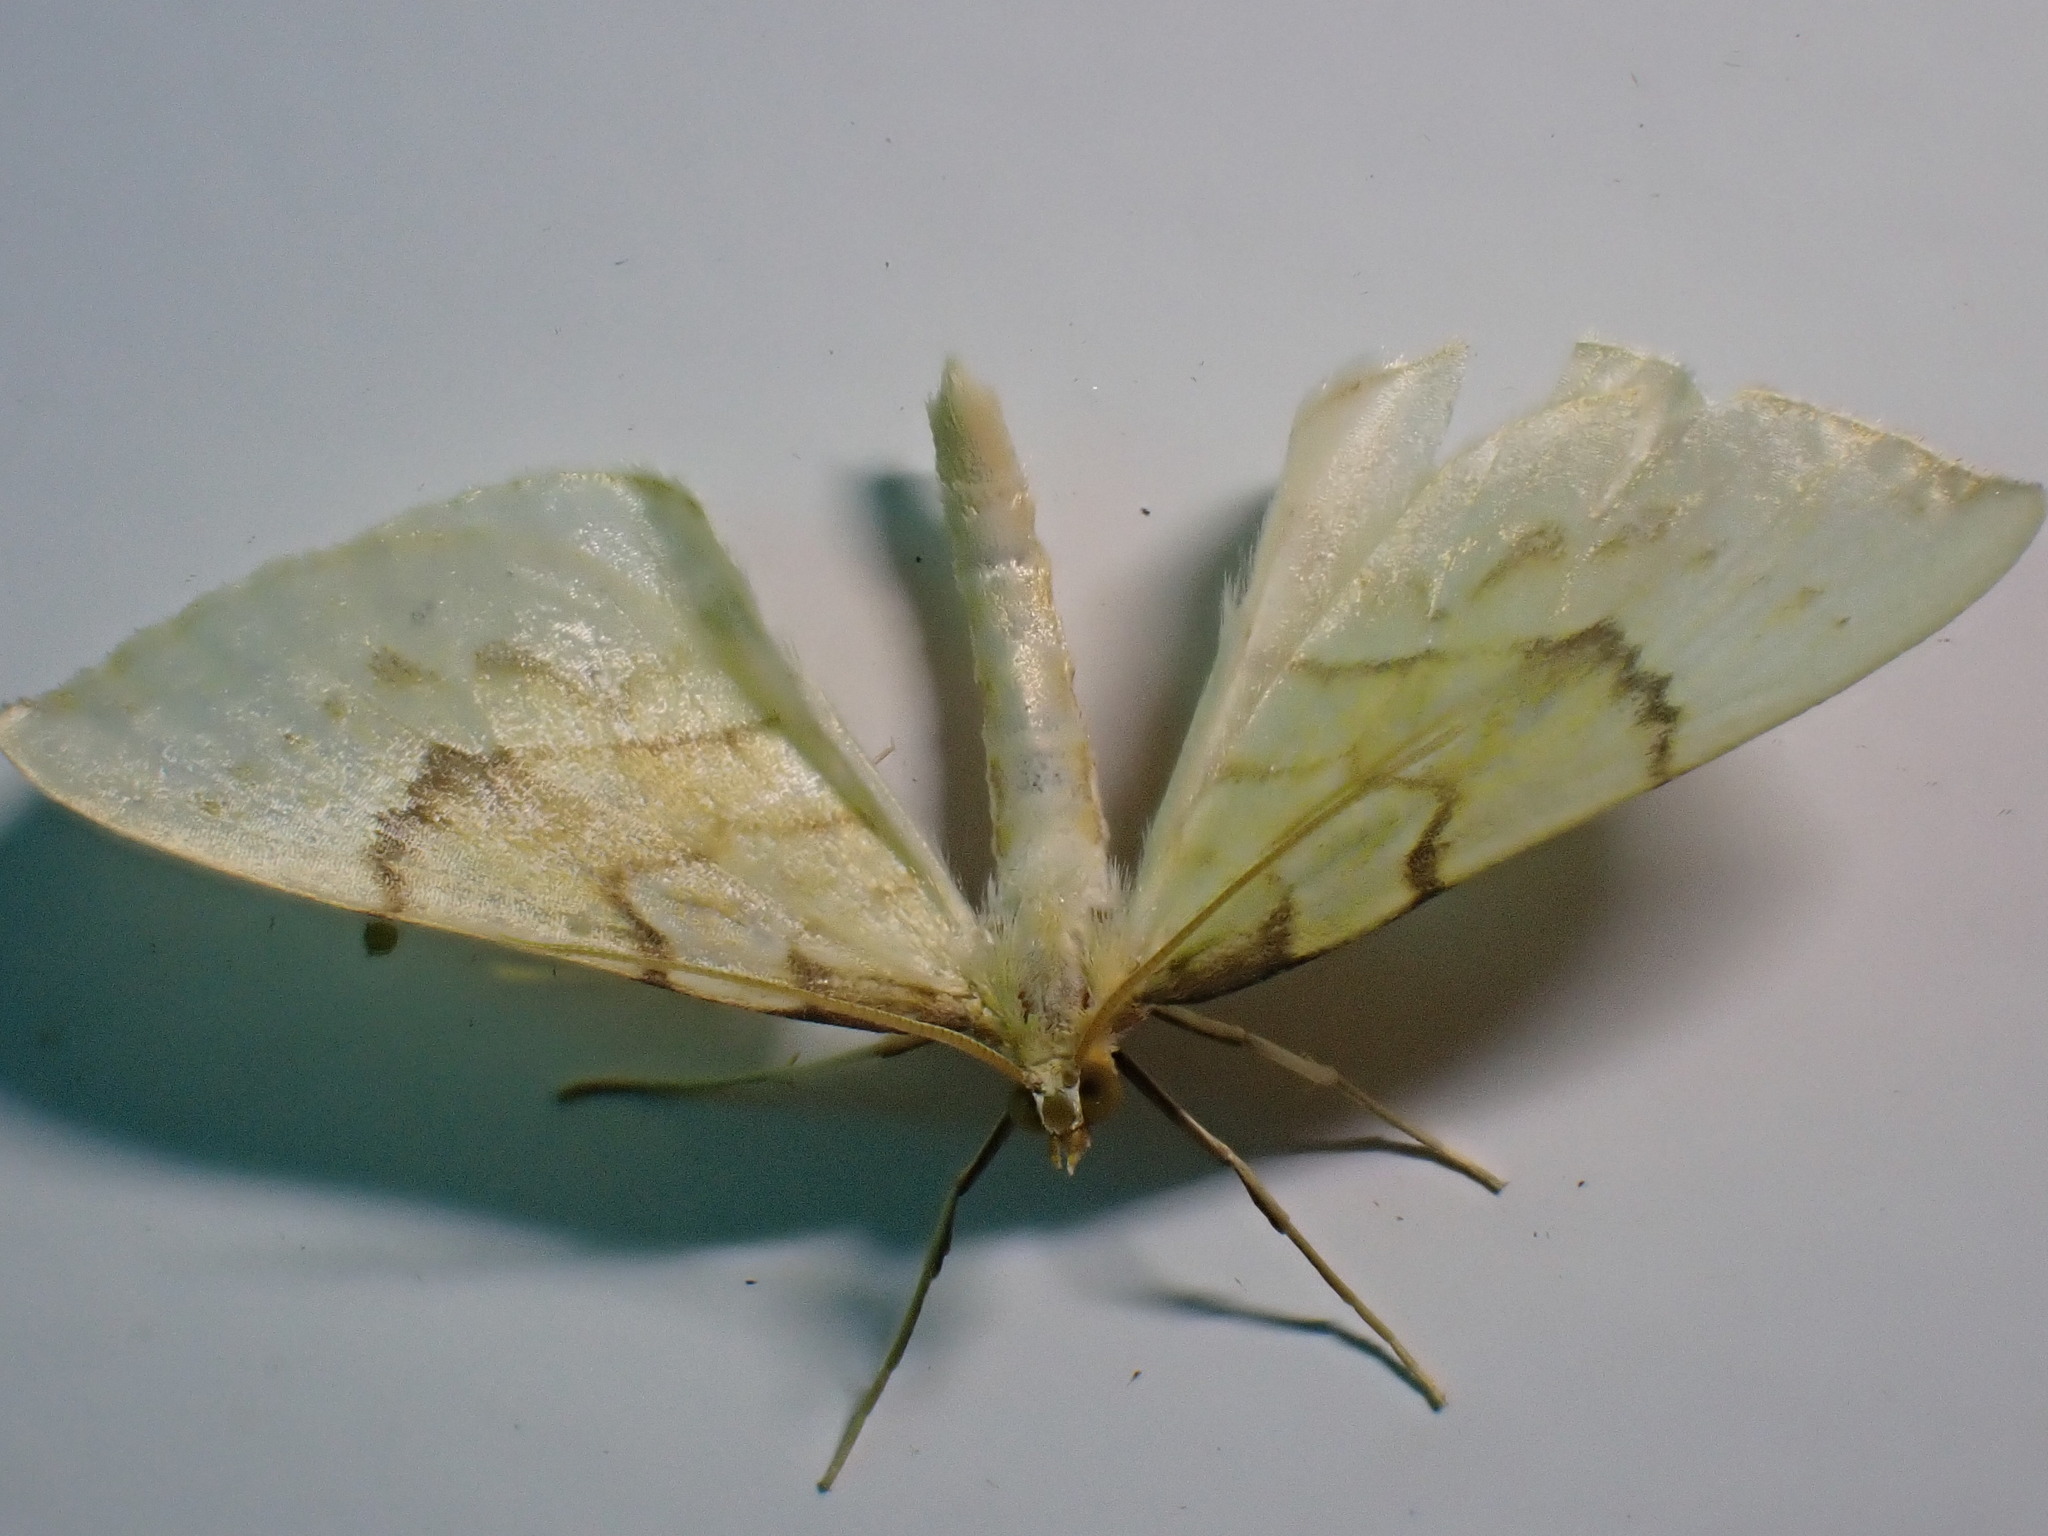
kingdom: Animalia
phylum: Arthropoda
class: Insecta
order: Lepidoptera
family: Geometridae
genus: Eulithis
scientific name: Eulithis pyraliata
